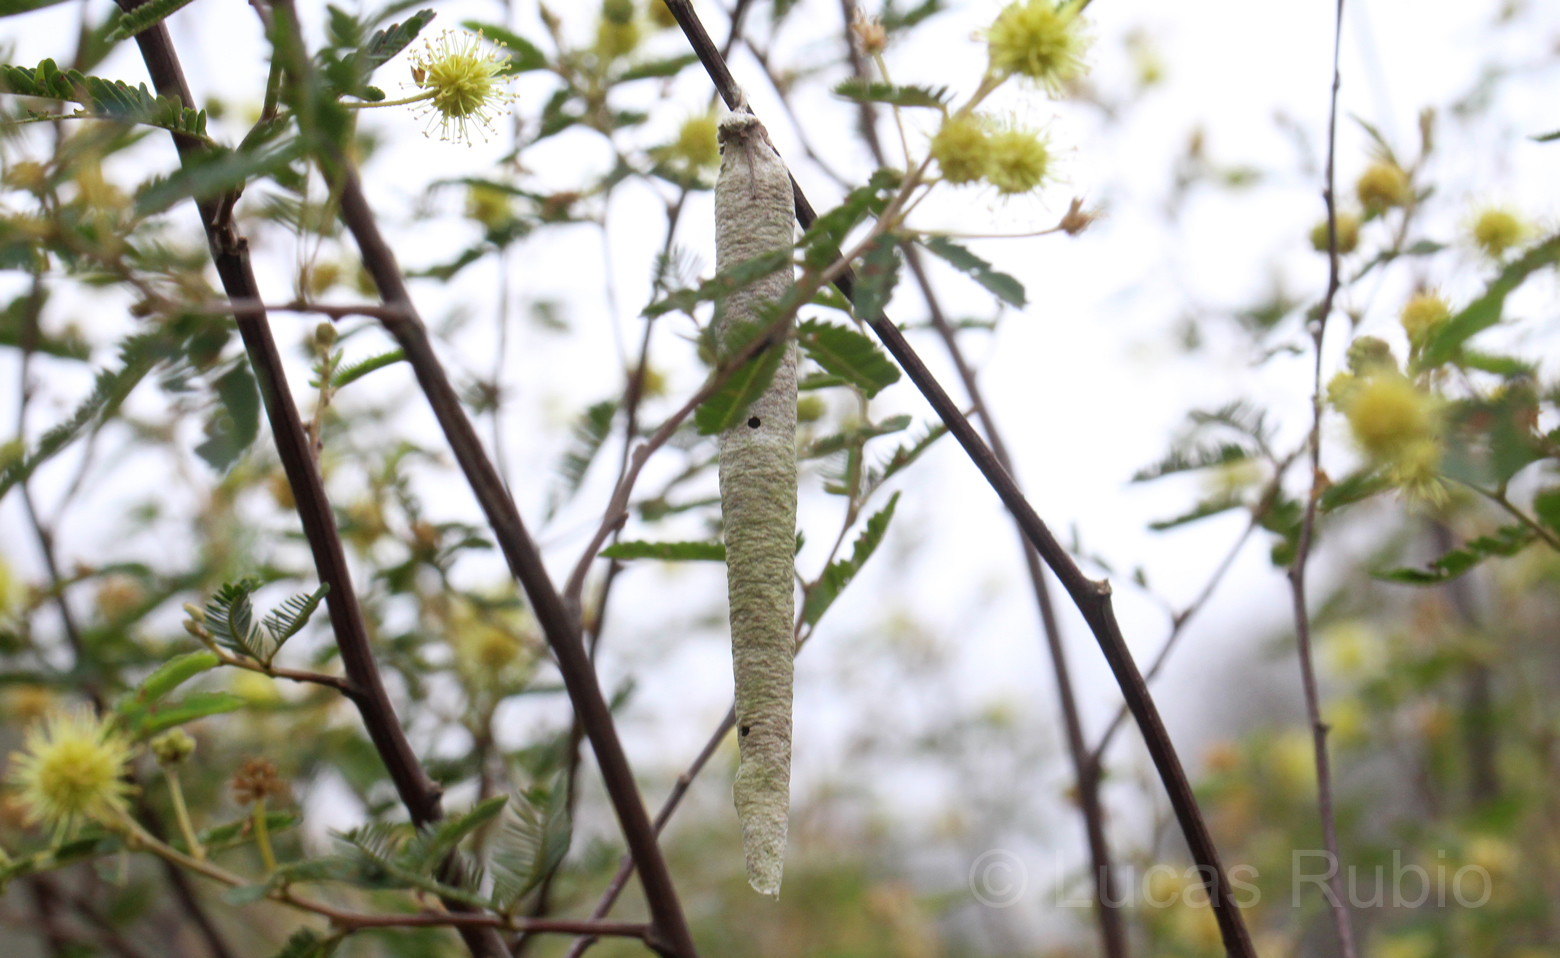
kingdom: Animalia
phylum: Arthropoda
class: Insecta
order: Lepidoptera
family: Psychidae
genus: Oiketicus
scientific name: Oiketicus geyeri
